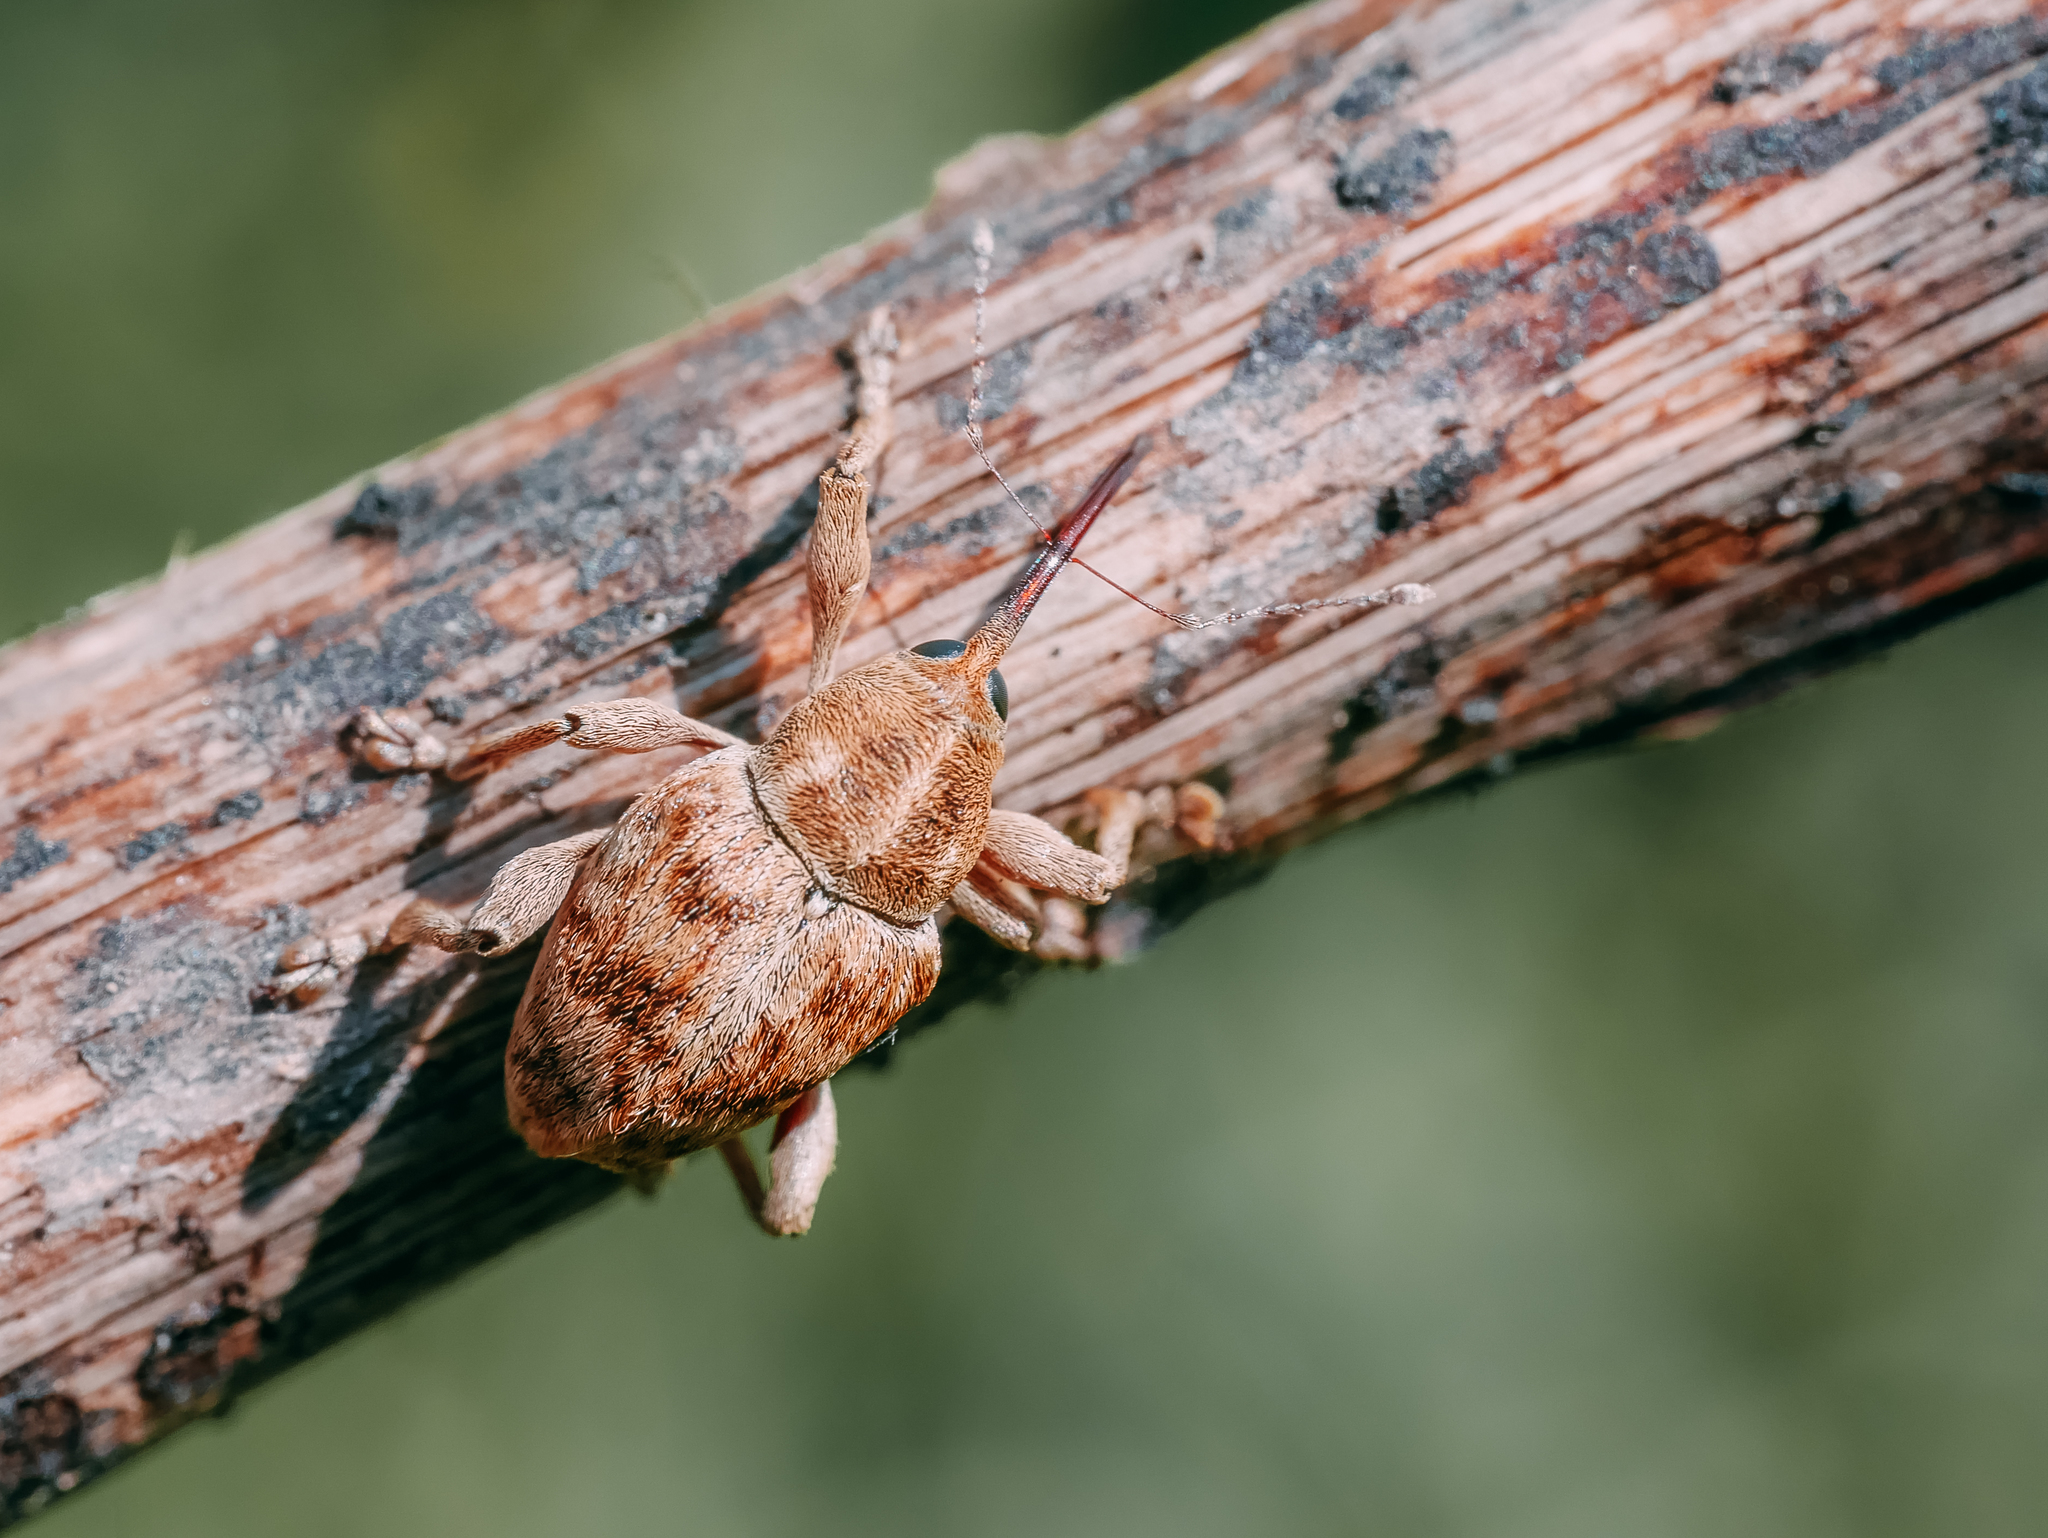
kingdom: Animalia
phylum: Arthropoda
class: Insecta
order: Coleoptera
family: Curculionidae
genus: Curculio
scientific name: Curculio venosus
